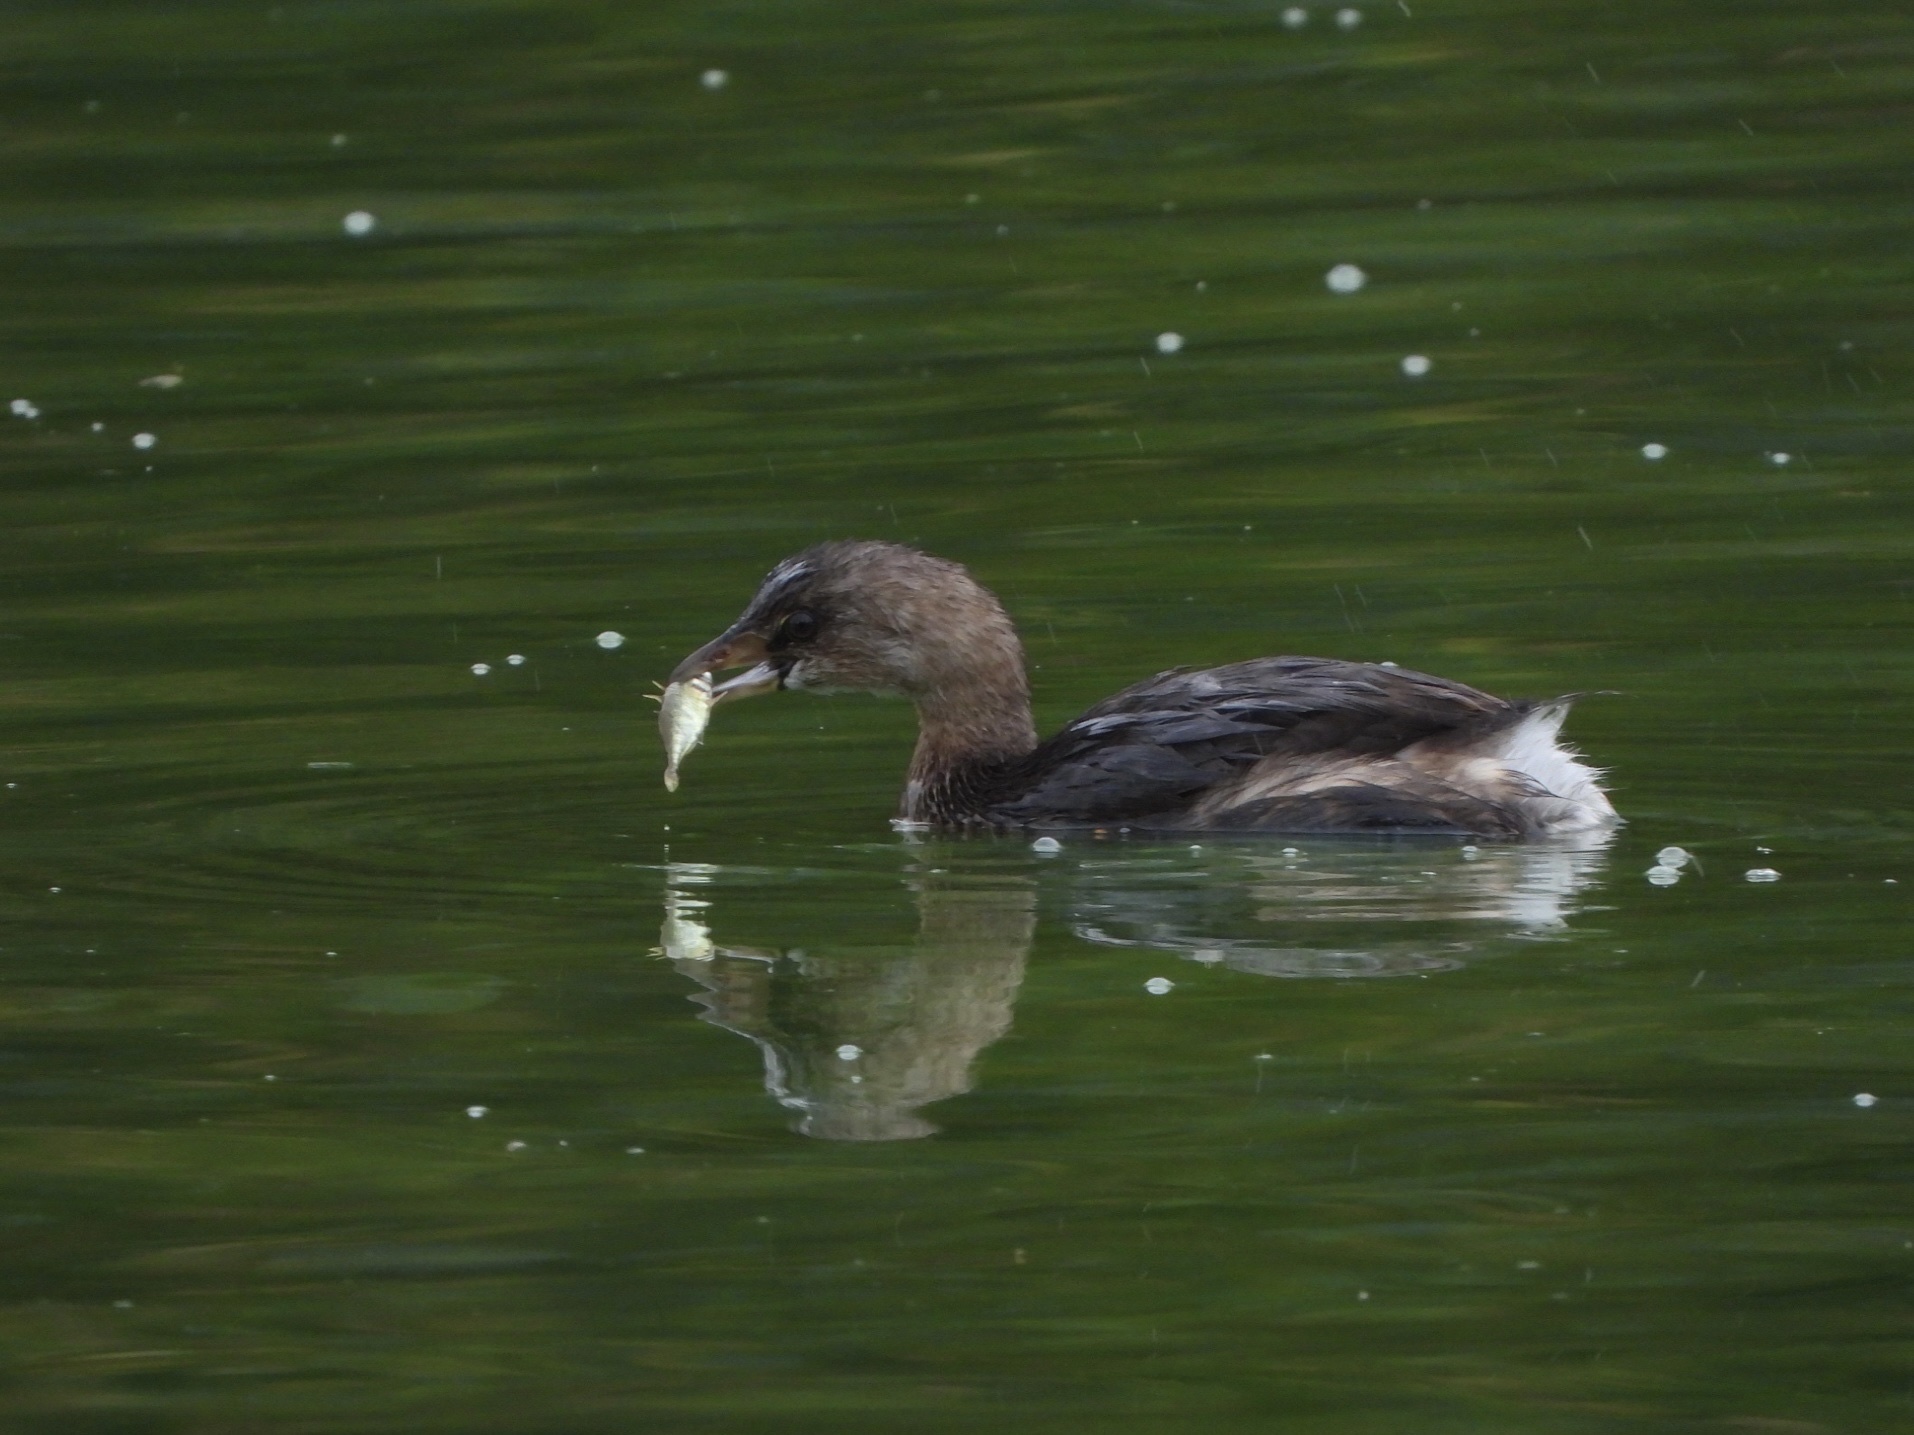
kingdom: Animalia
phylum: Chordata
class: Aves
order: Podicipediformes
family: Podicipedidae
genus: Podilymbus
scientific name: Podilymbus podiceps
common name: Pied-billed grebe
